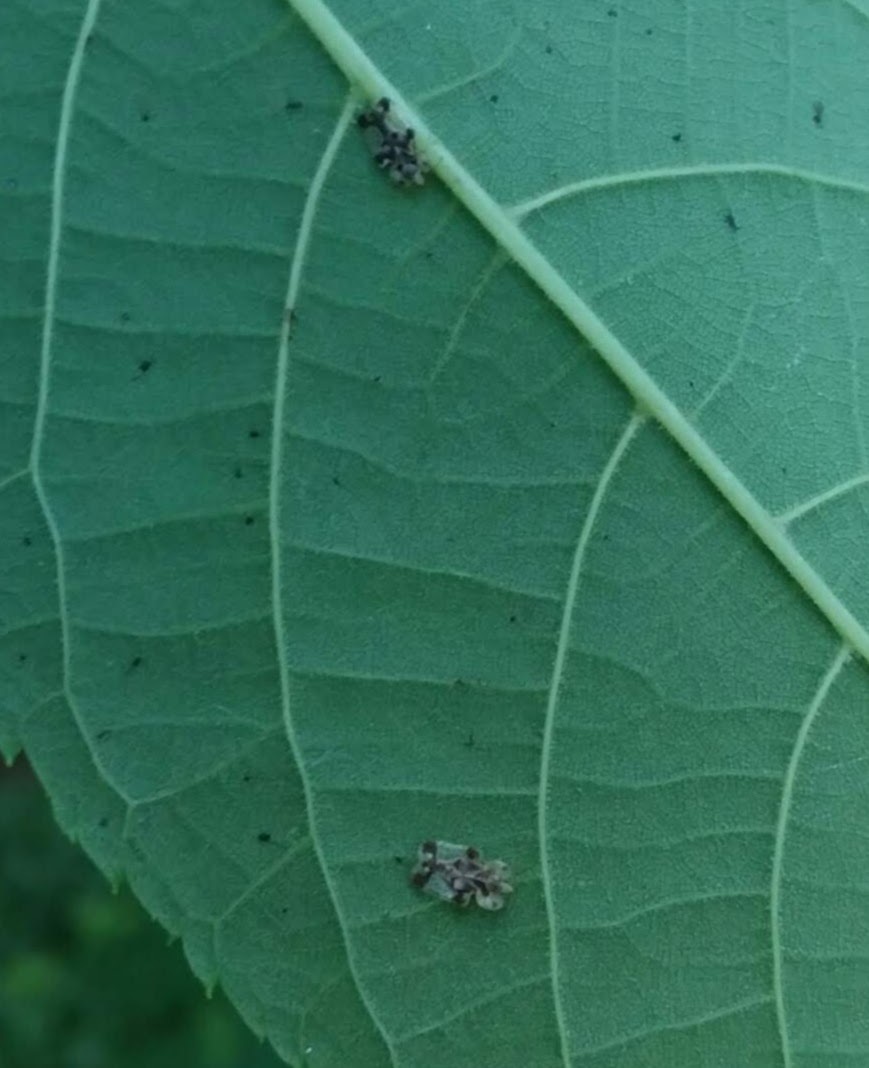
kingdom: Animalia
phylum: Arthropoda
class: Insecta
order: Hemiptera
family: Tingidae
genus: Corythucha
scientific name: Corythucha juglandis
